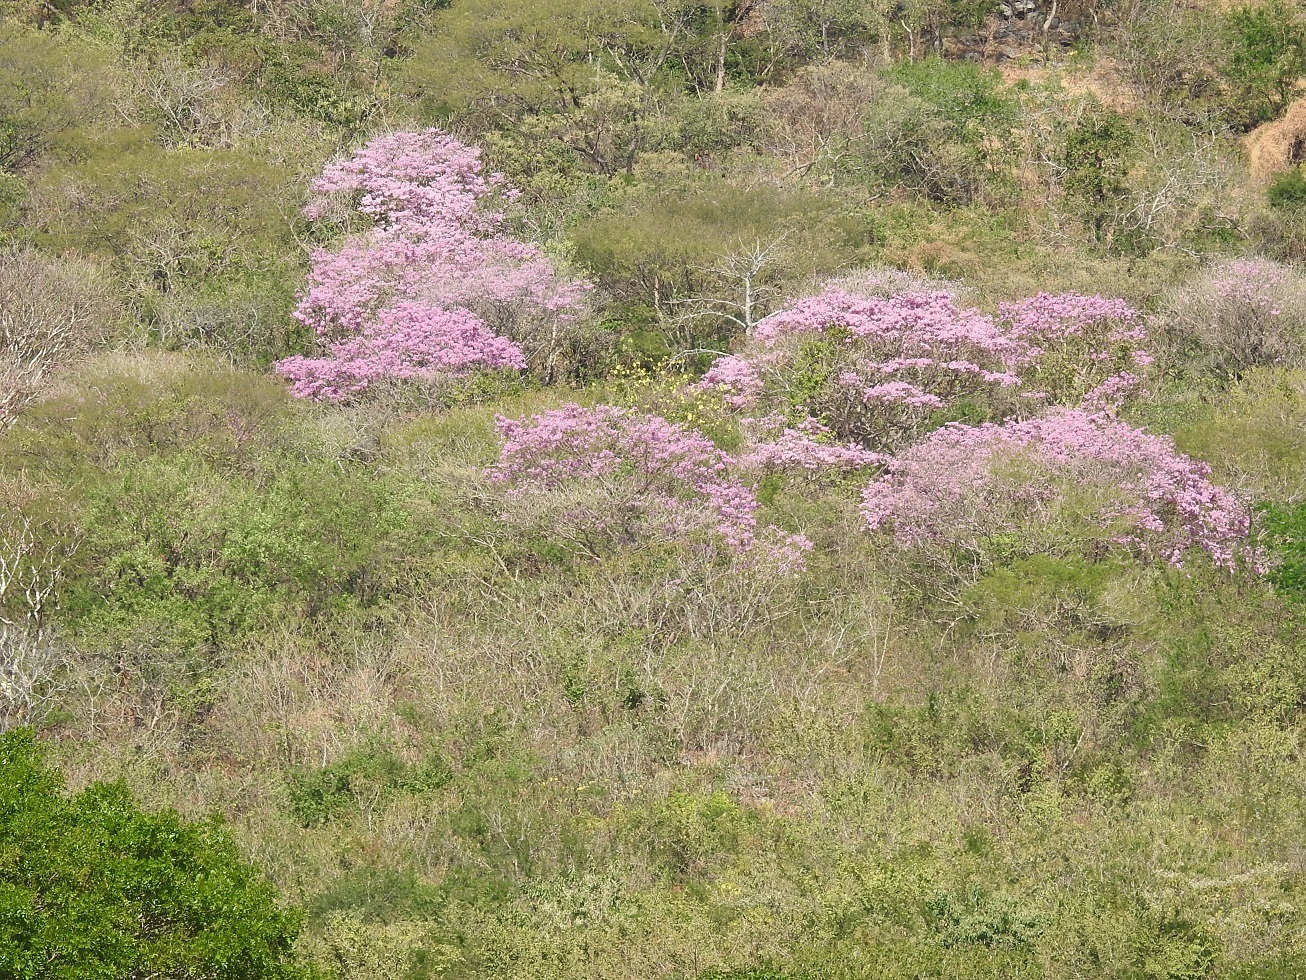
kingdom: Plantae
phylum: Tracheophyta
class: Magnoliopsida
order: Lamiales
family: Bignoniaceae
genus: Tabebuia
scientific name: Tabebuia rosea
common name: Pink poui
